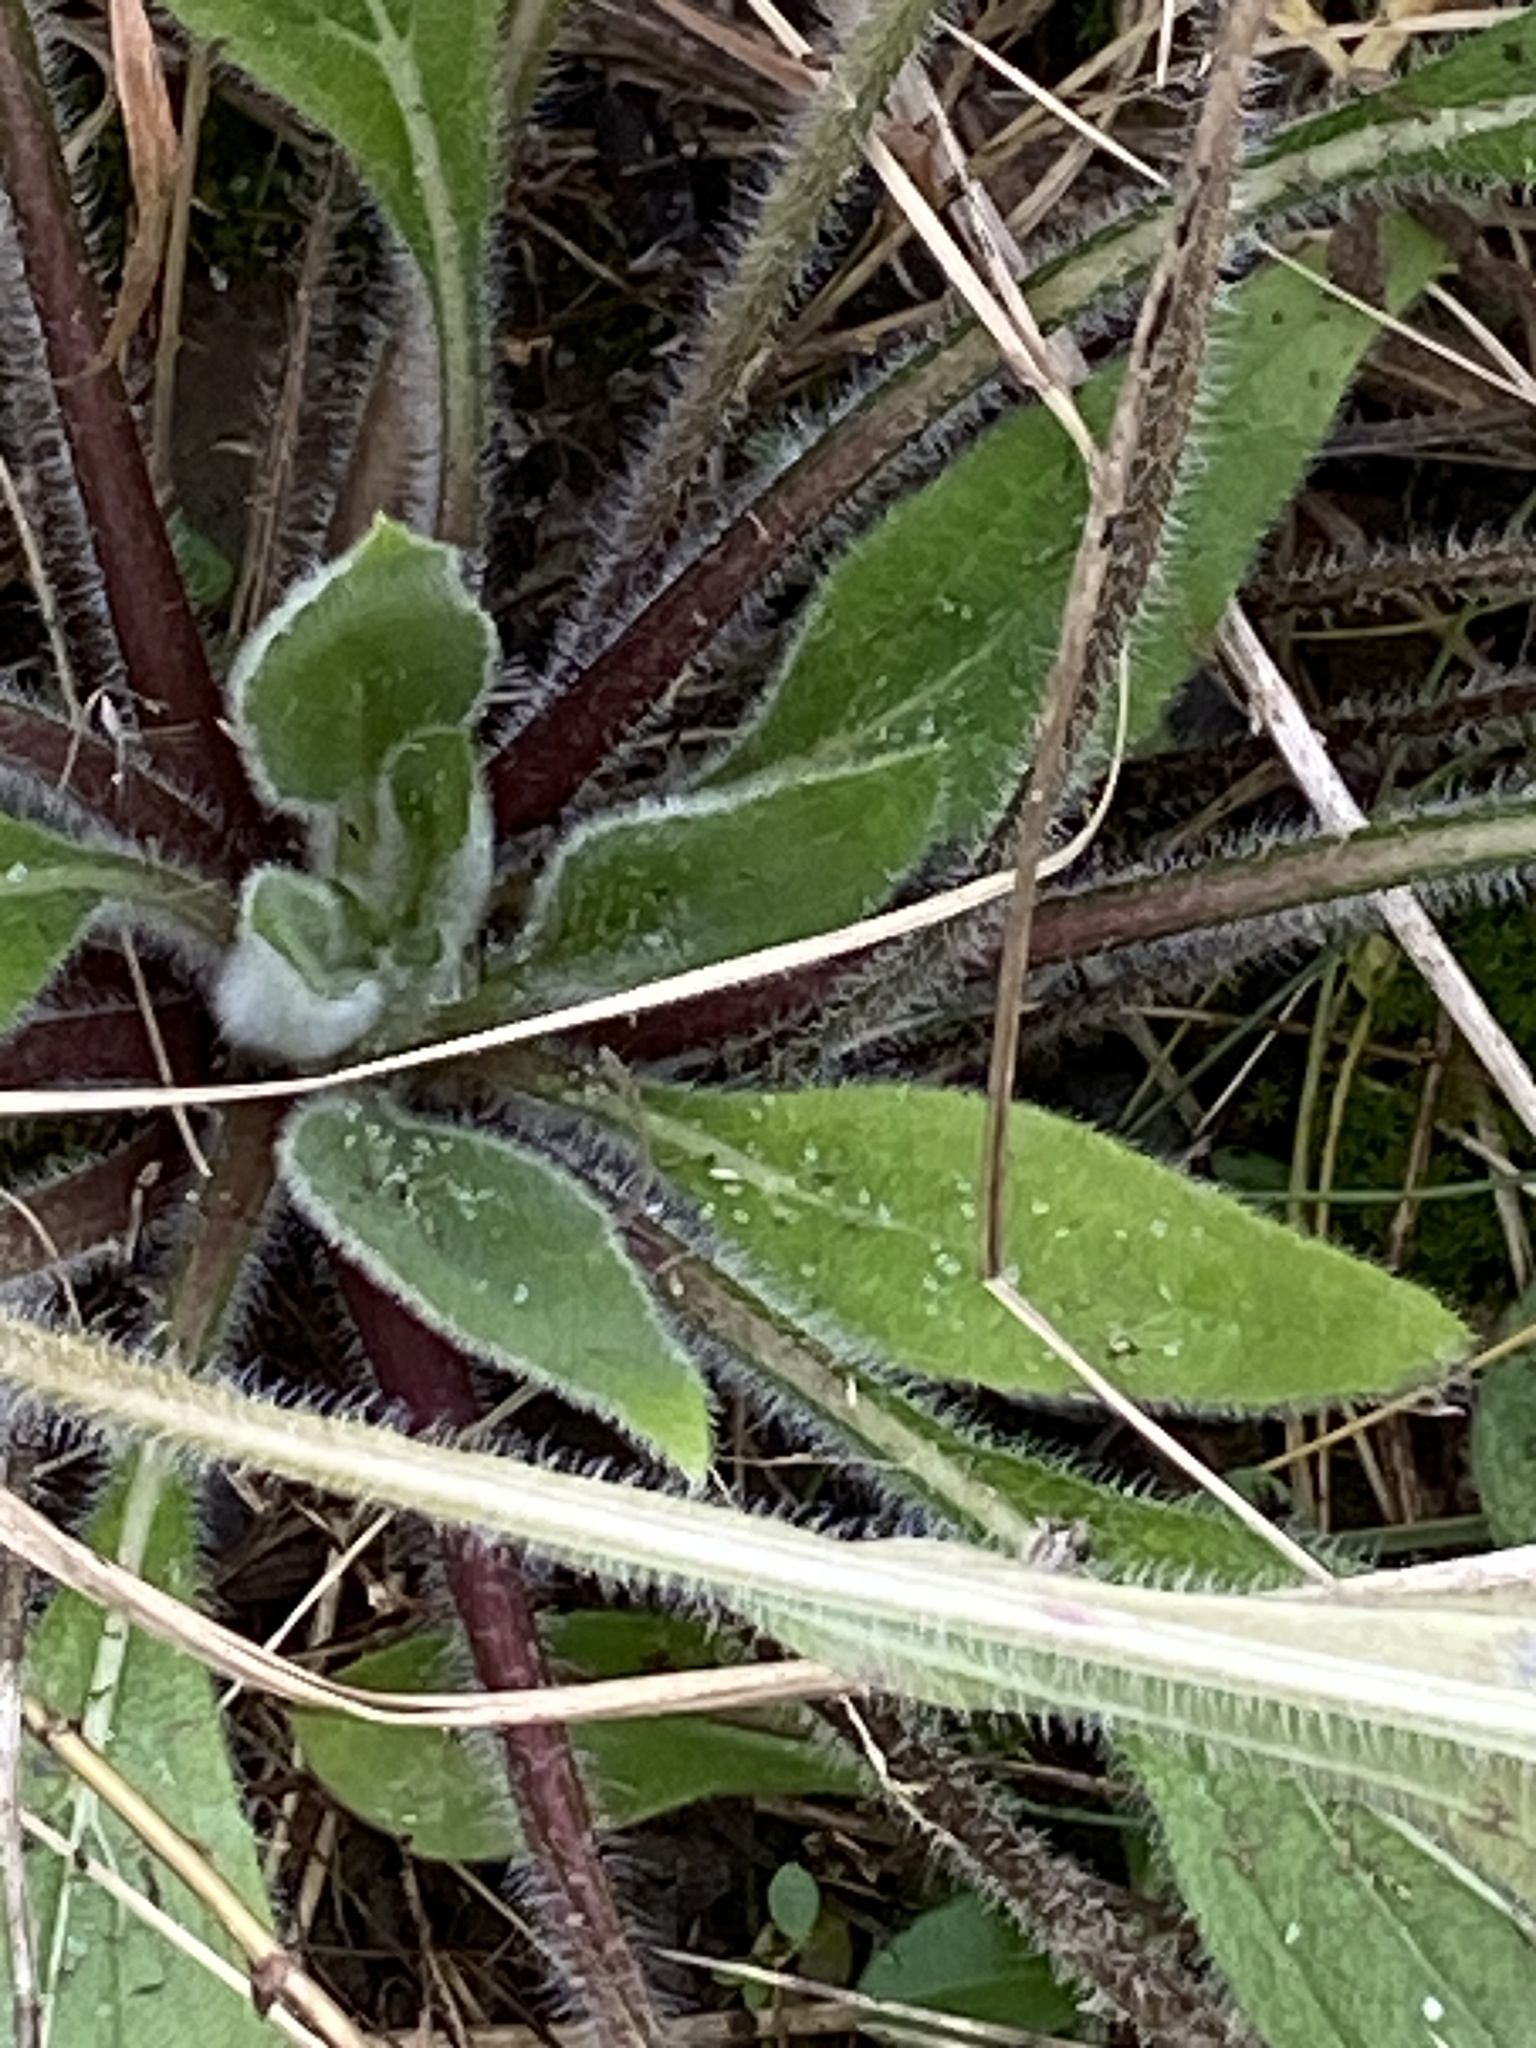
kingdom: Plantae
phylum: Tracheophyta
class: Magnoliopsida
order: Asterales
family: Asteraceae
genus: Rudbeckia
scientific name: Rudbeckia hirta
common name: Black-eyed-susan
